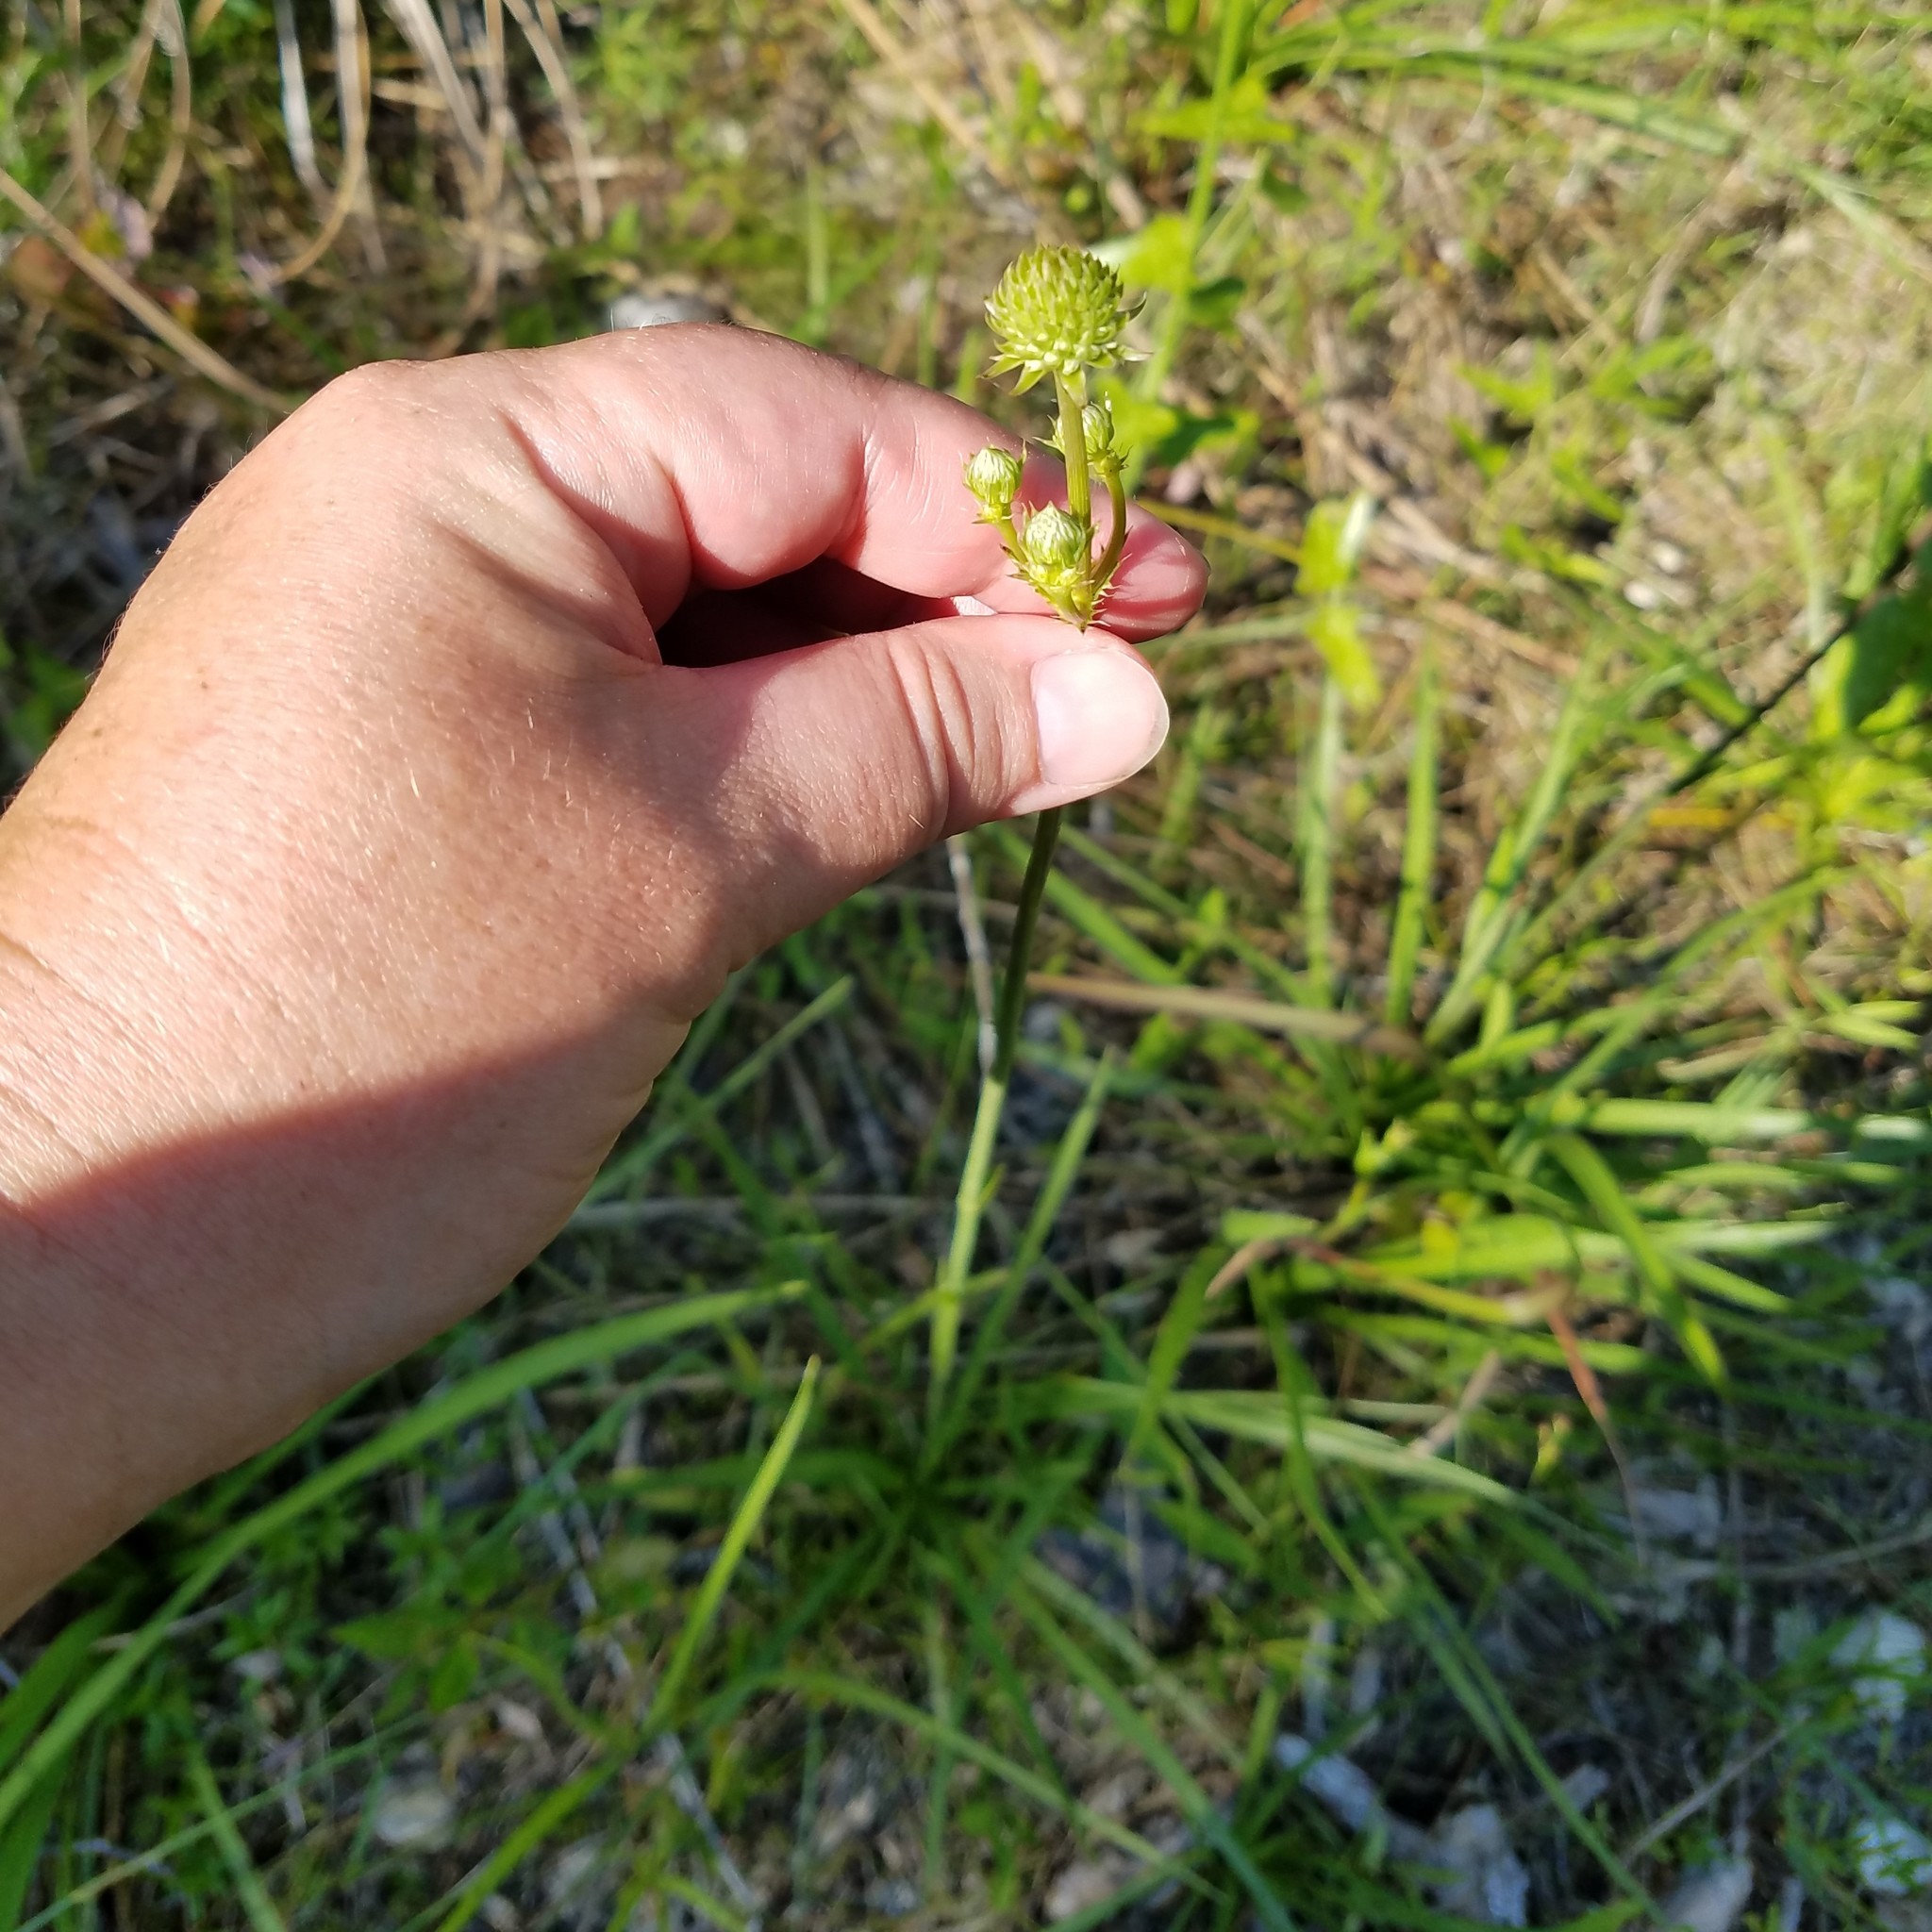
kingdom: Plantae
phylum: Tracheophyta
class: Magnoliopsida
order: Apiales
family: Apiaceae
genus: Eryngium
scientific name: Eryngium yuccifolium
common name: Button eryngo
